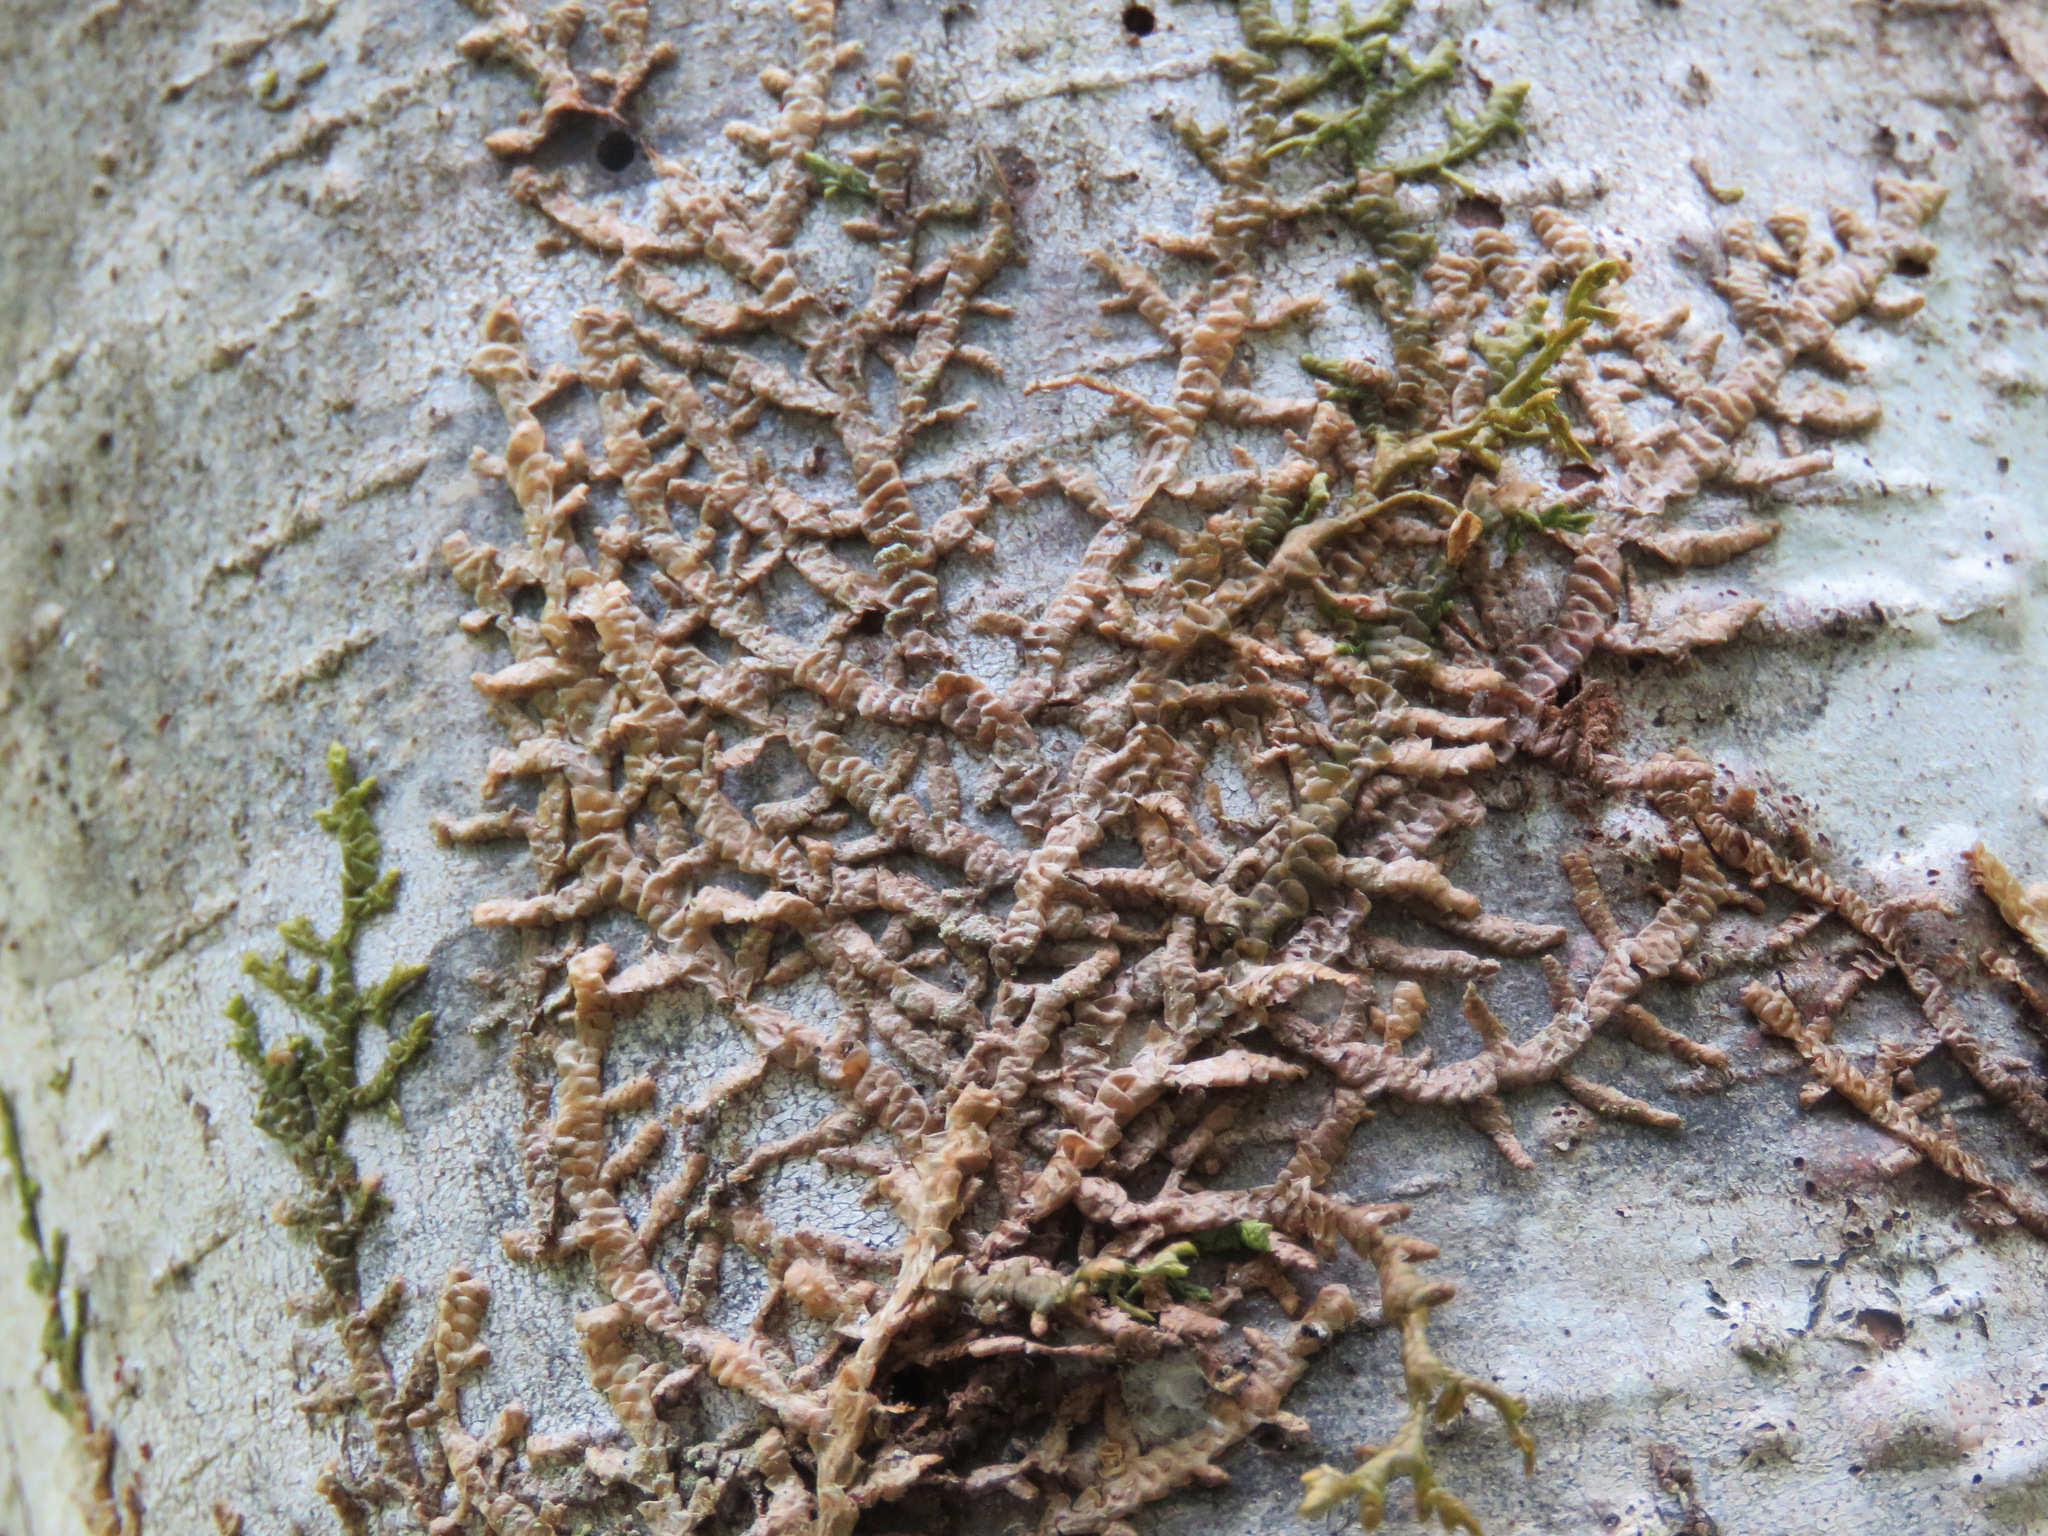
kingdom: Plantae
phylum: Marchantiophyta
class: Jungermanniopsida
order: Porellales
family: Porellaceae
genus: Porella
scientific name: Porella navicularis
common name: Tree ruffle liverwort
